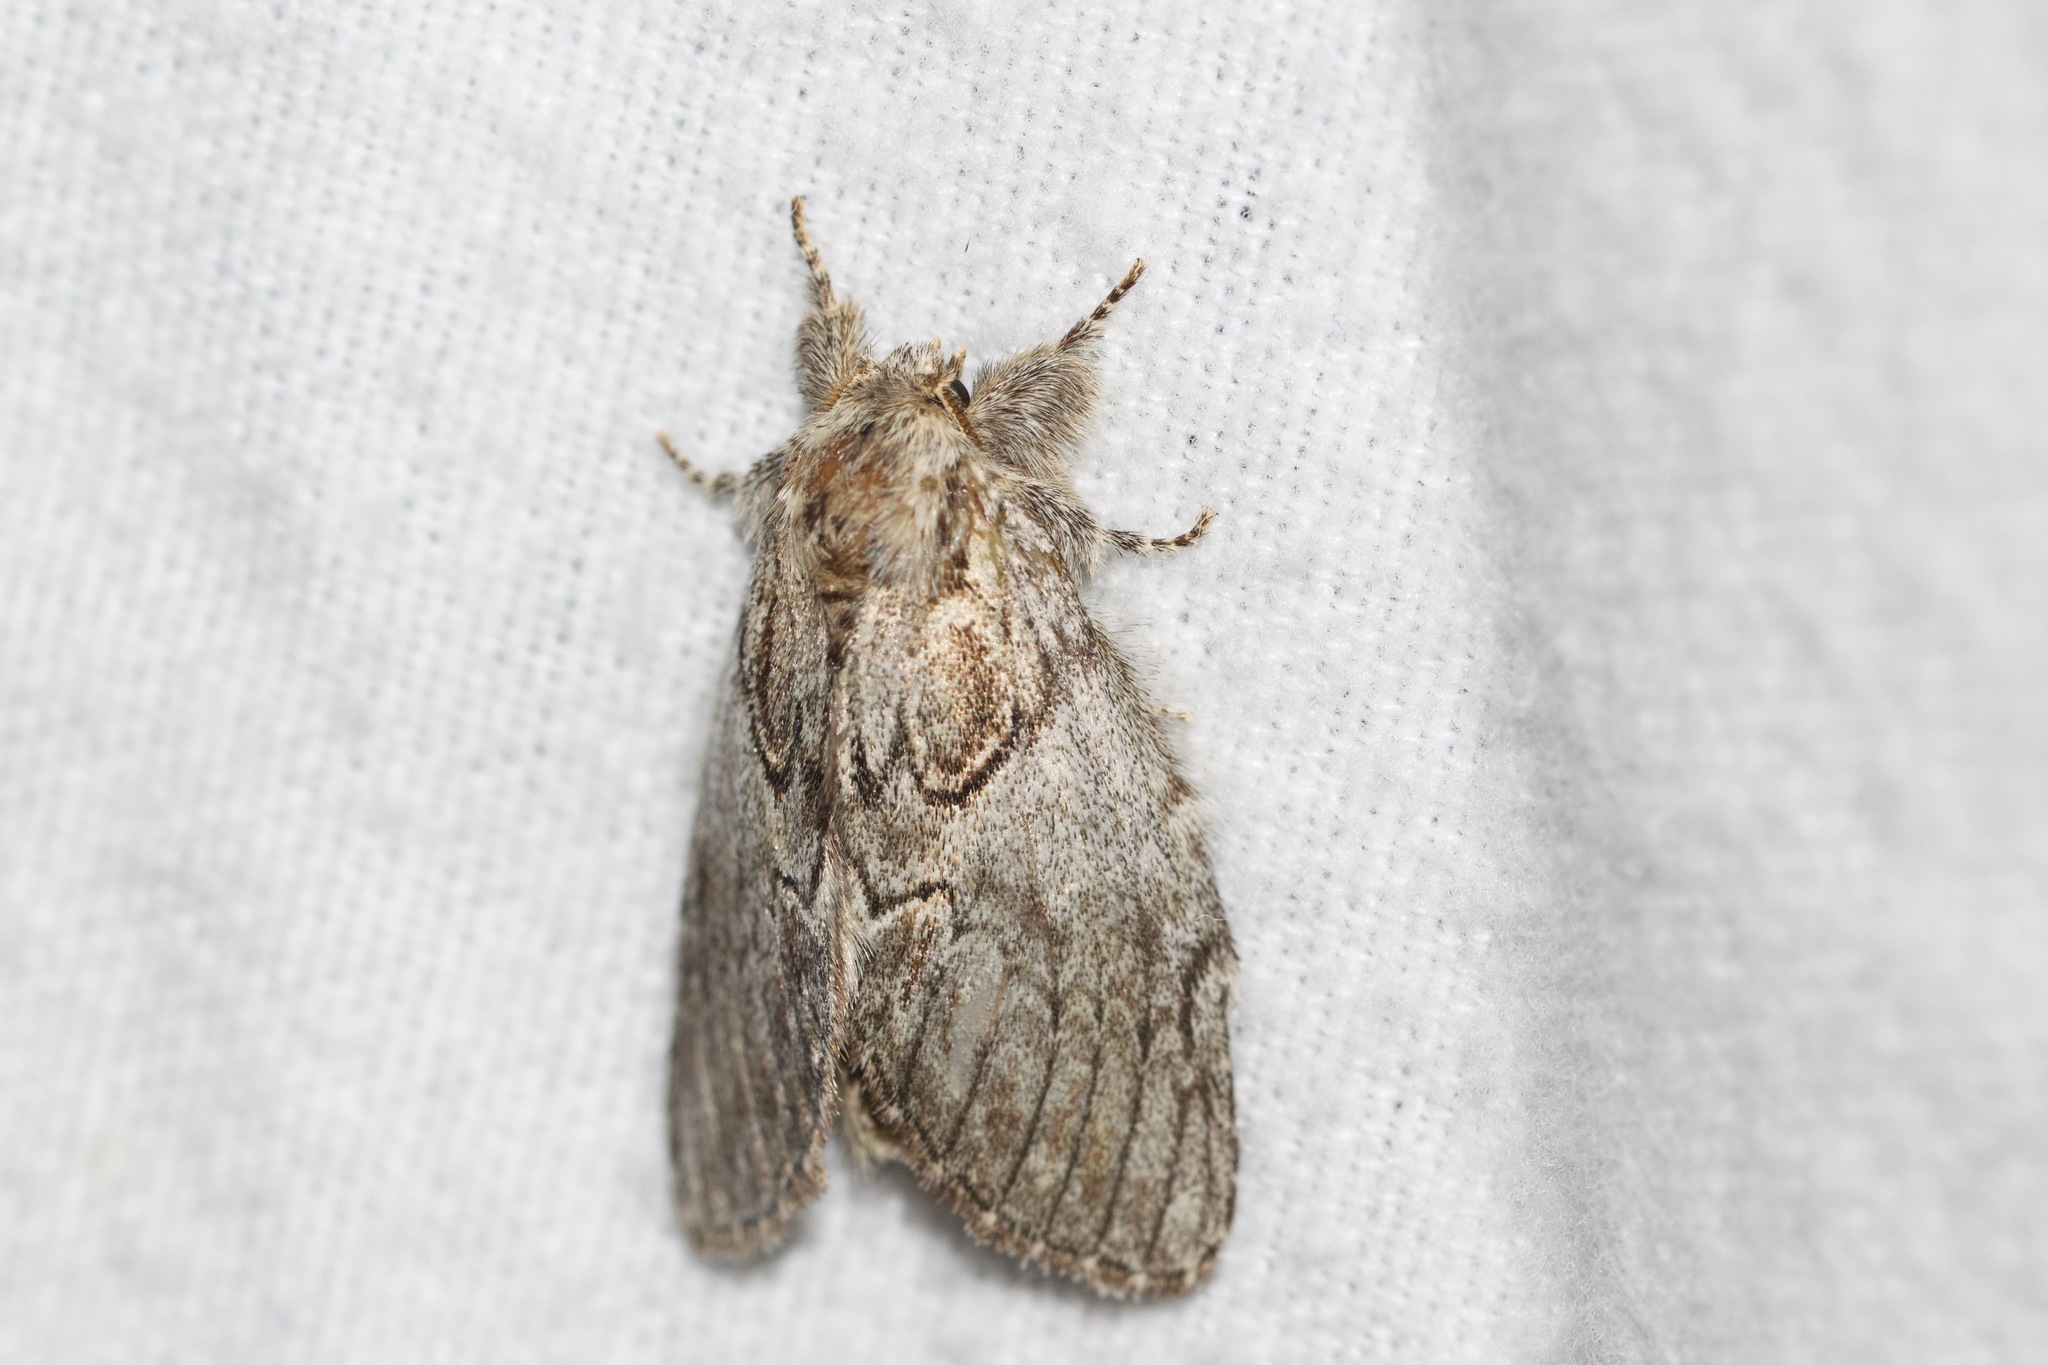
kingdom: Animalia
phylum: Arthropoda
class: Insecta
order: Lepidoptera
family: Notodontidae
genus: Peridea
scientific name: Peridea basitriens
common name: Oval-based prominent
